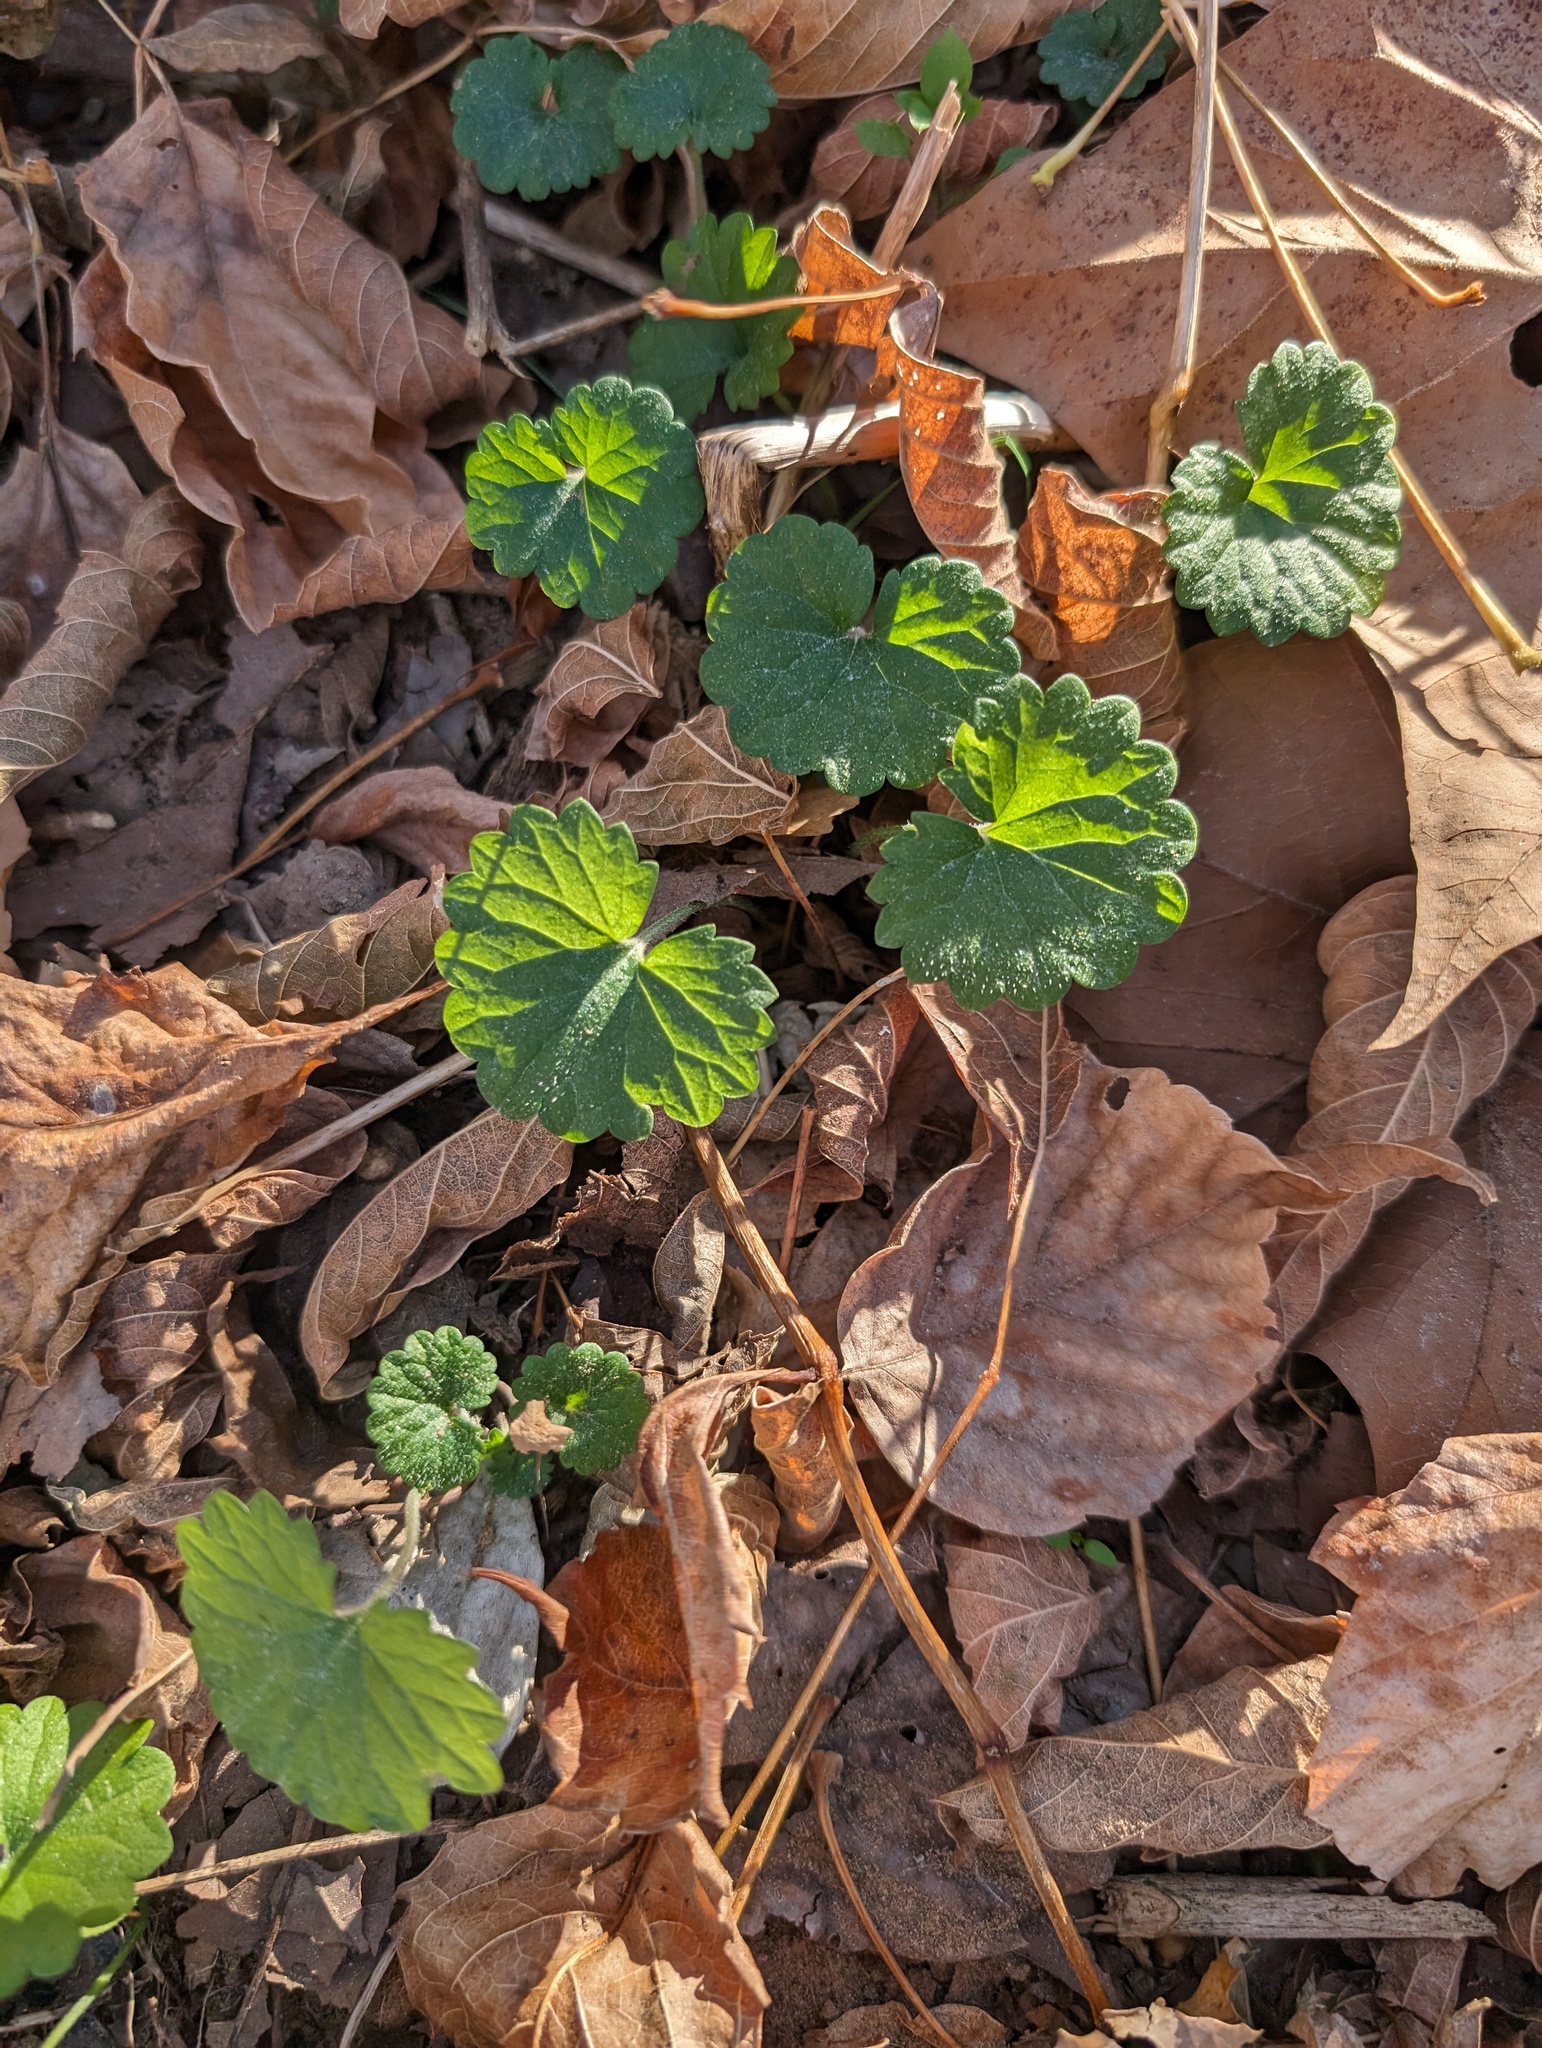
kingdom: Plantae
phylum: Tracheophyta
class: Magnoliopsida
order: Lamiales
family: Lamiaceae
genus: Glechoma
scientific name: Glechoma hederacea
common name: Ground ivy
